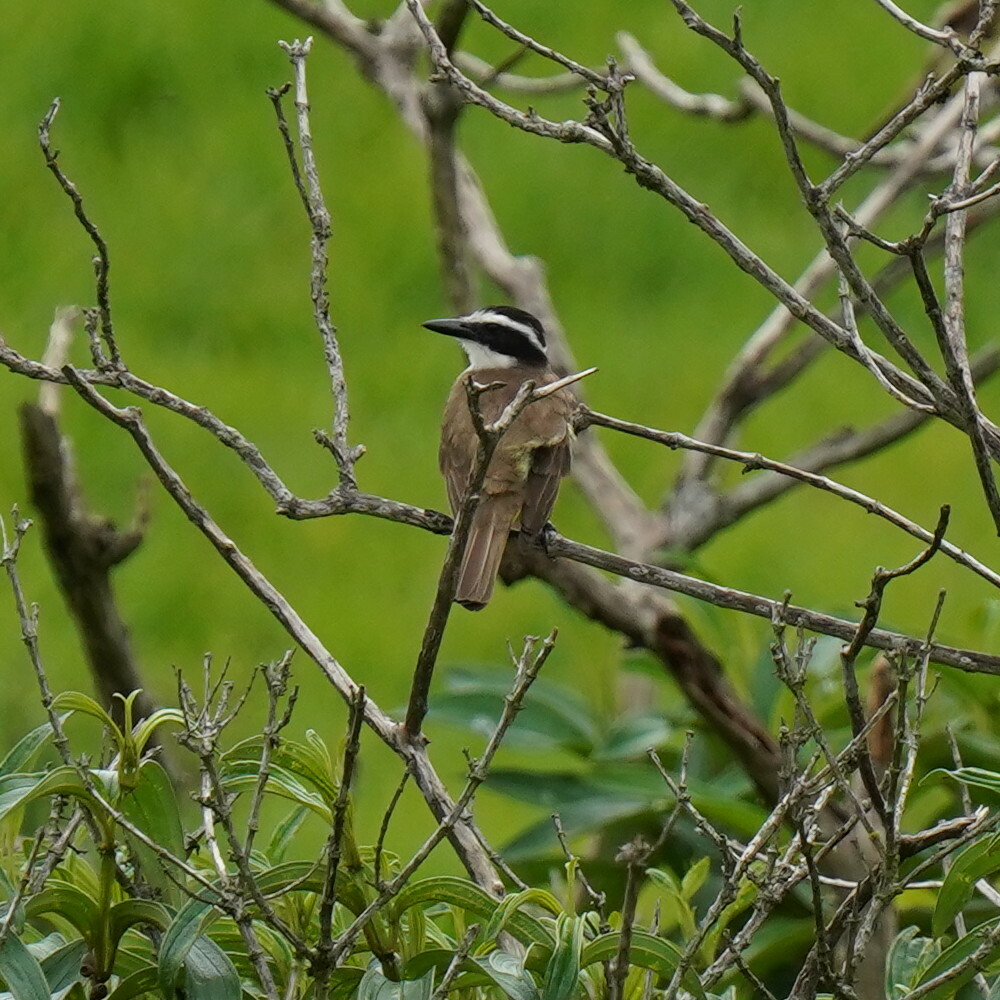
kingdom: Animalia
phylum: Chordata
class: Aves
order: Passeriformes
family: Tyrannidae
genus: Pitangus
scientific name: Pitangus sulphuratus
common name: Great kiskadee
